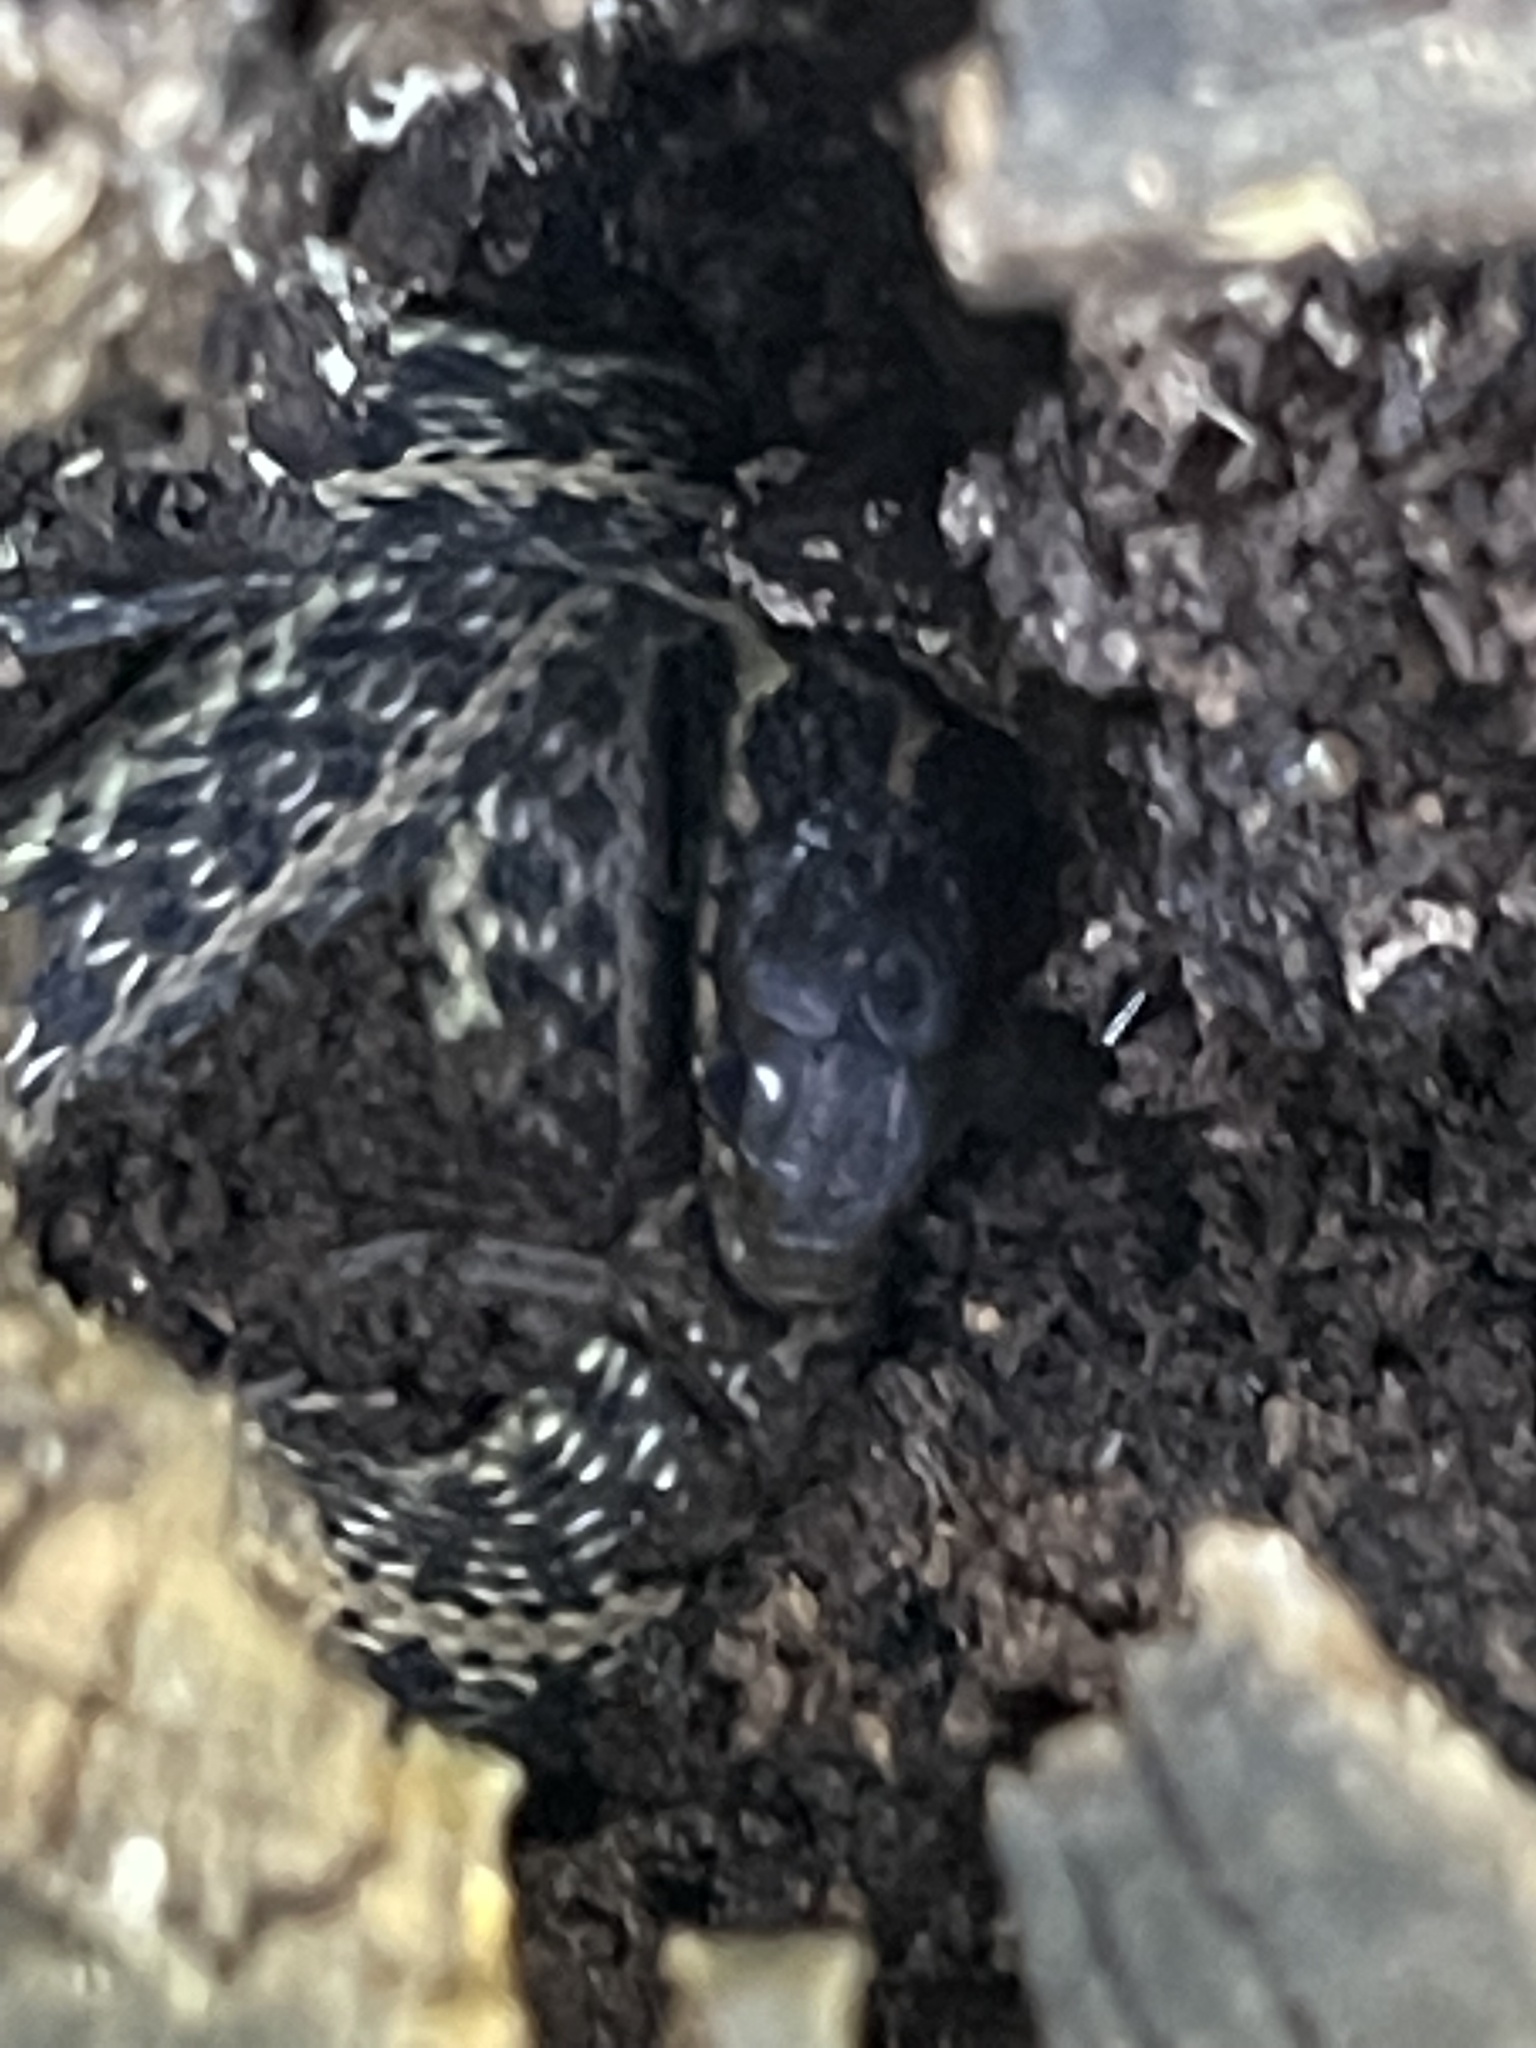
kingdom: Animalia
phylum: Chordata
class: Squamata
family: Colubridae
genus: Thamnophis
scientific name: Thamnophis sirtalis
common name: Common garter snake
